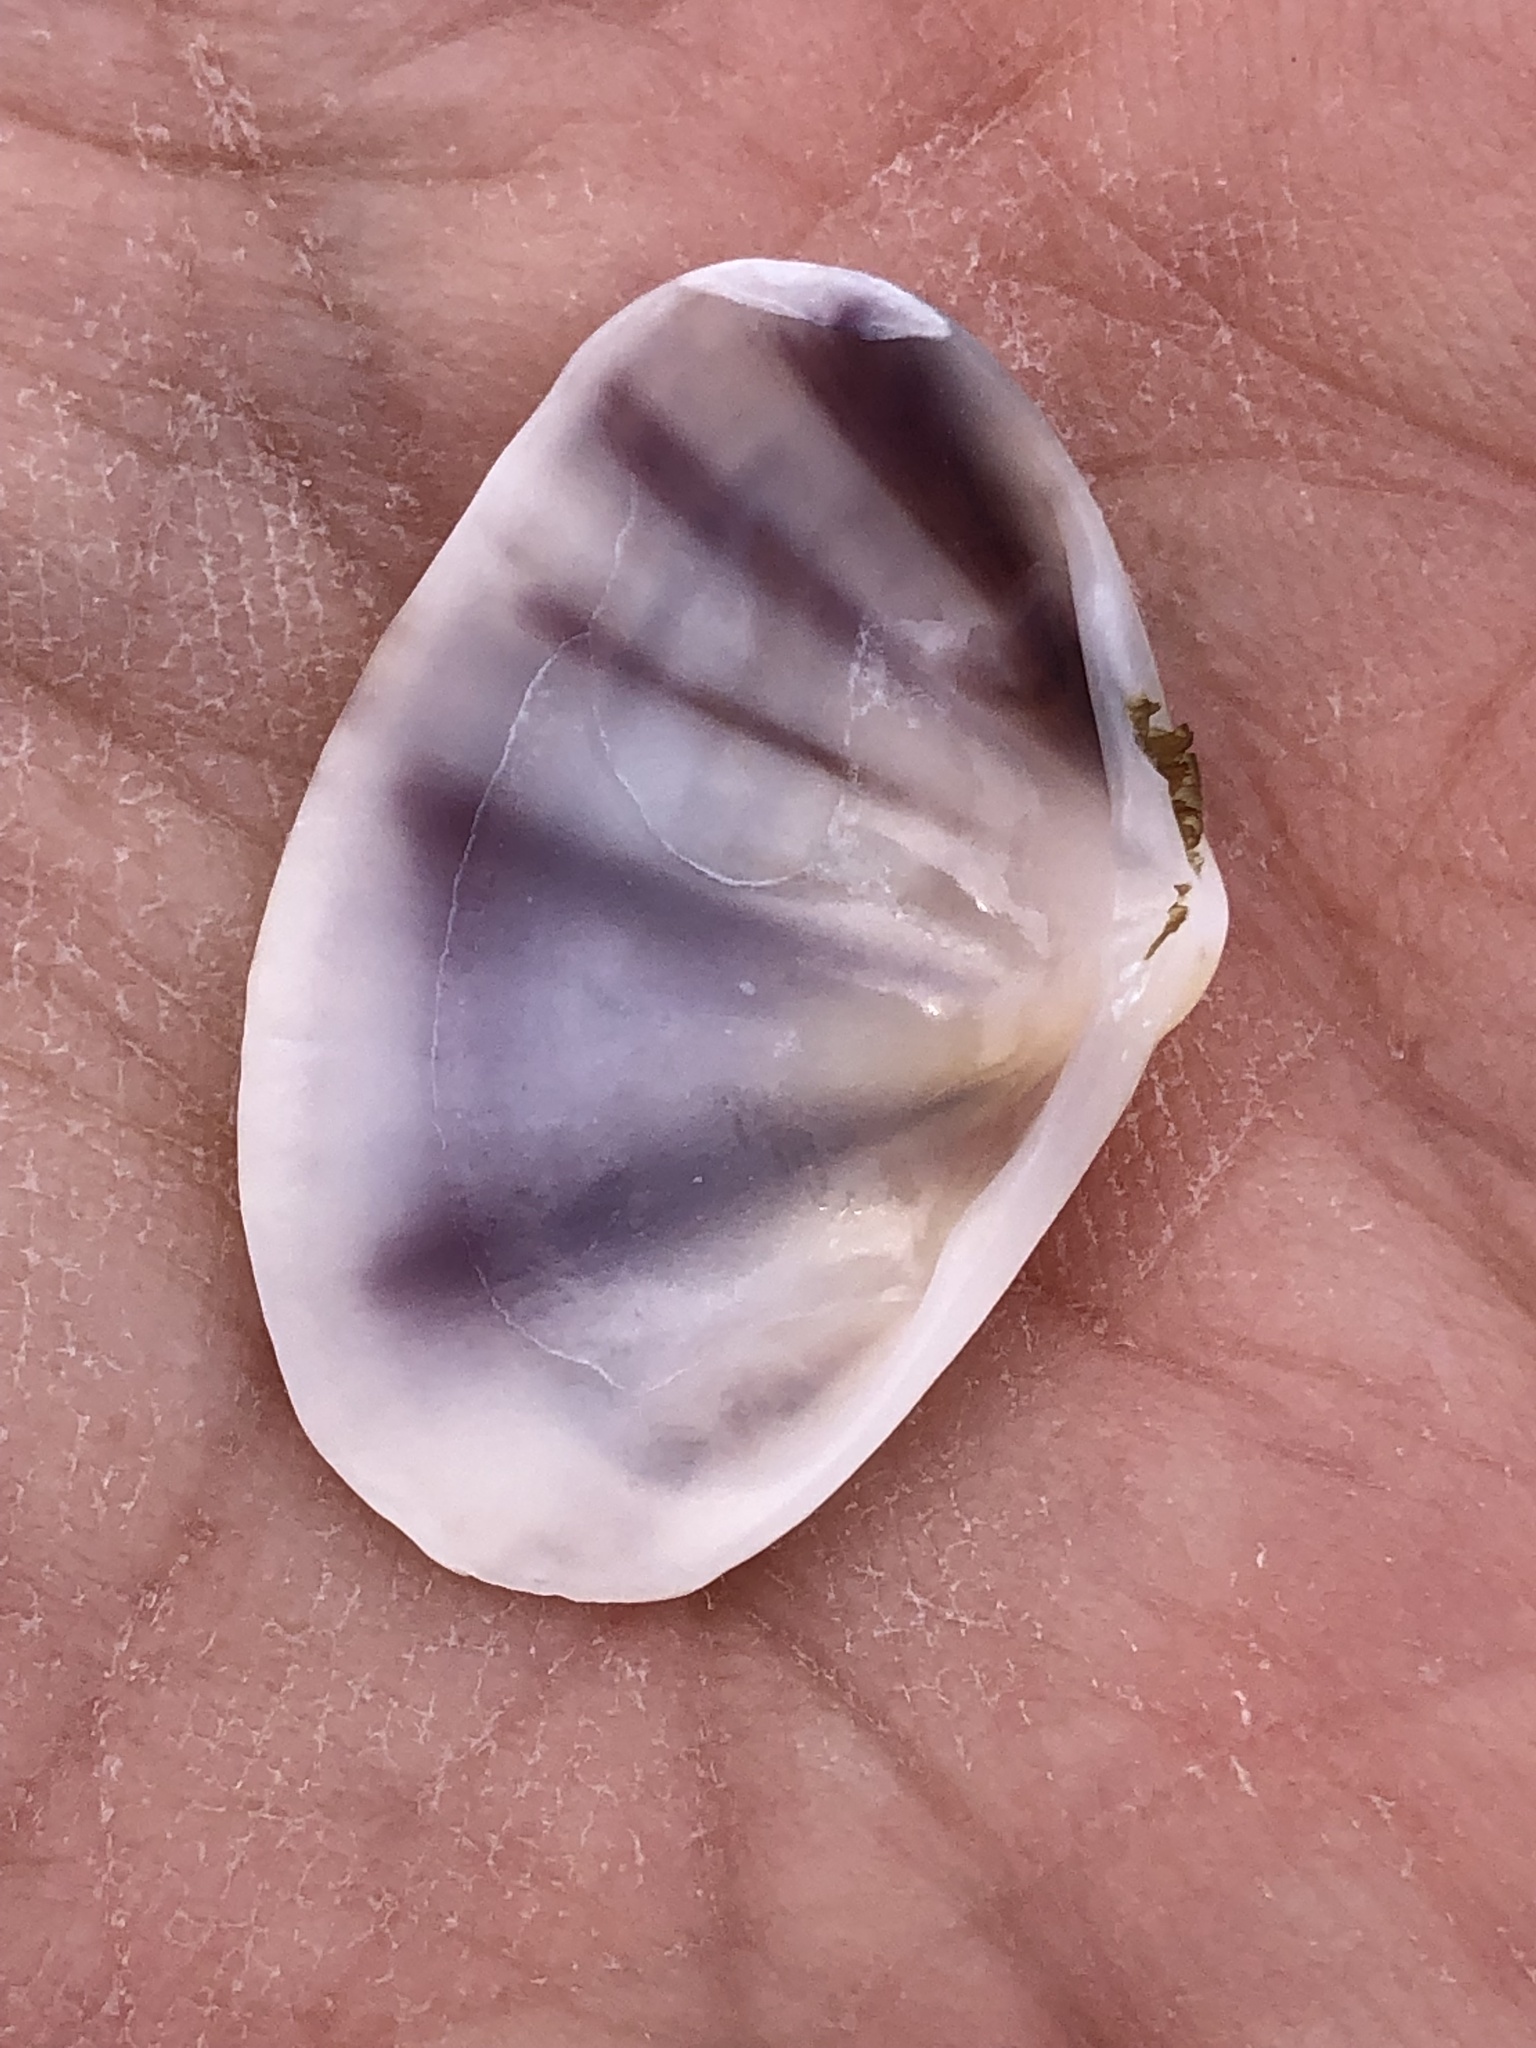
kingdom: Animalia
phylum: Mollusca
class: Bivalvia
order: Cardiida
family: Donacidae
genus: Donax
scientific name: Donax faba
